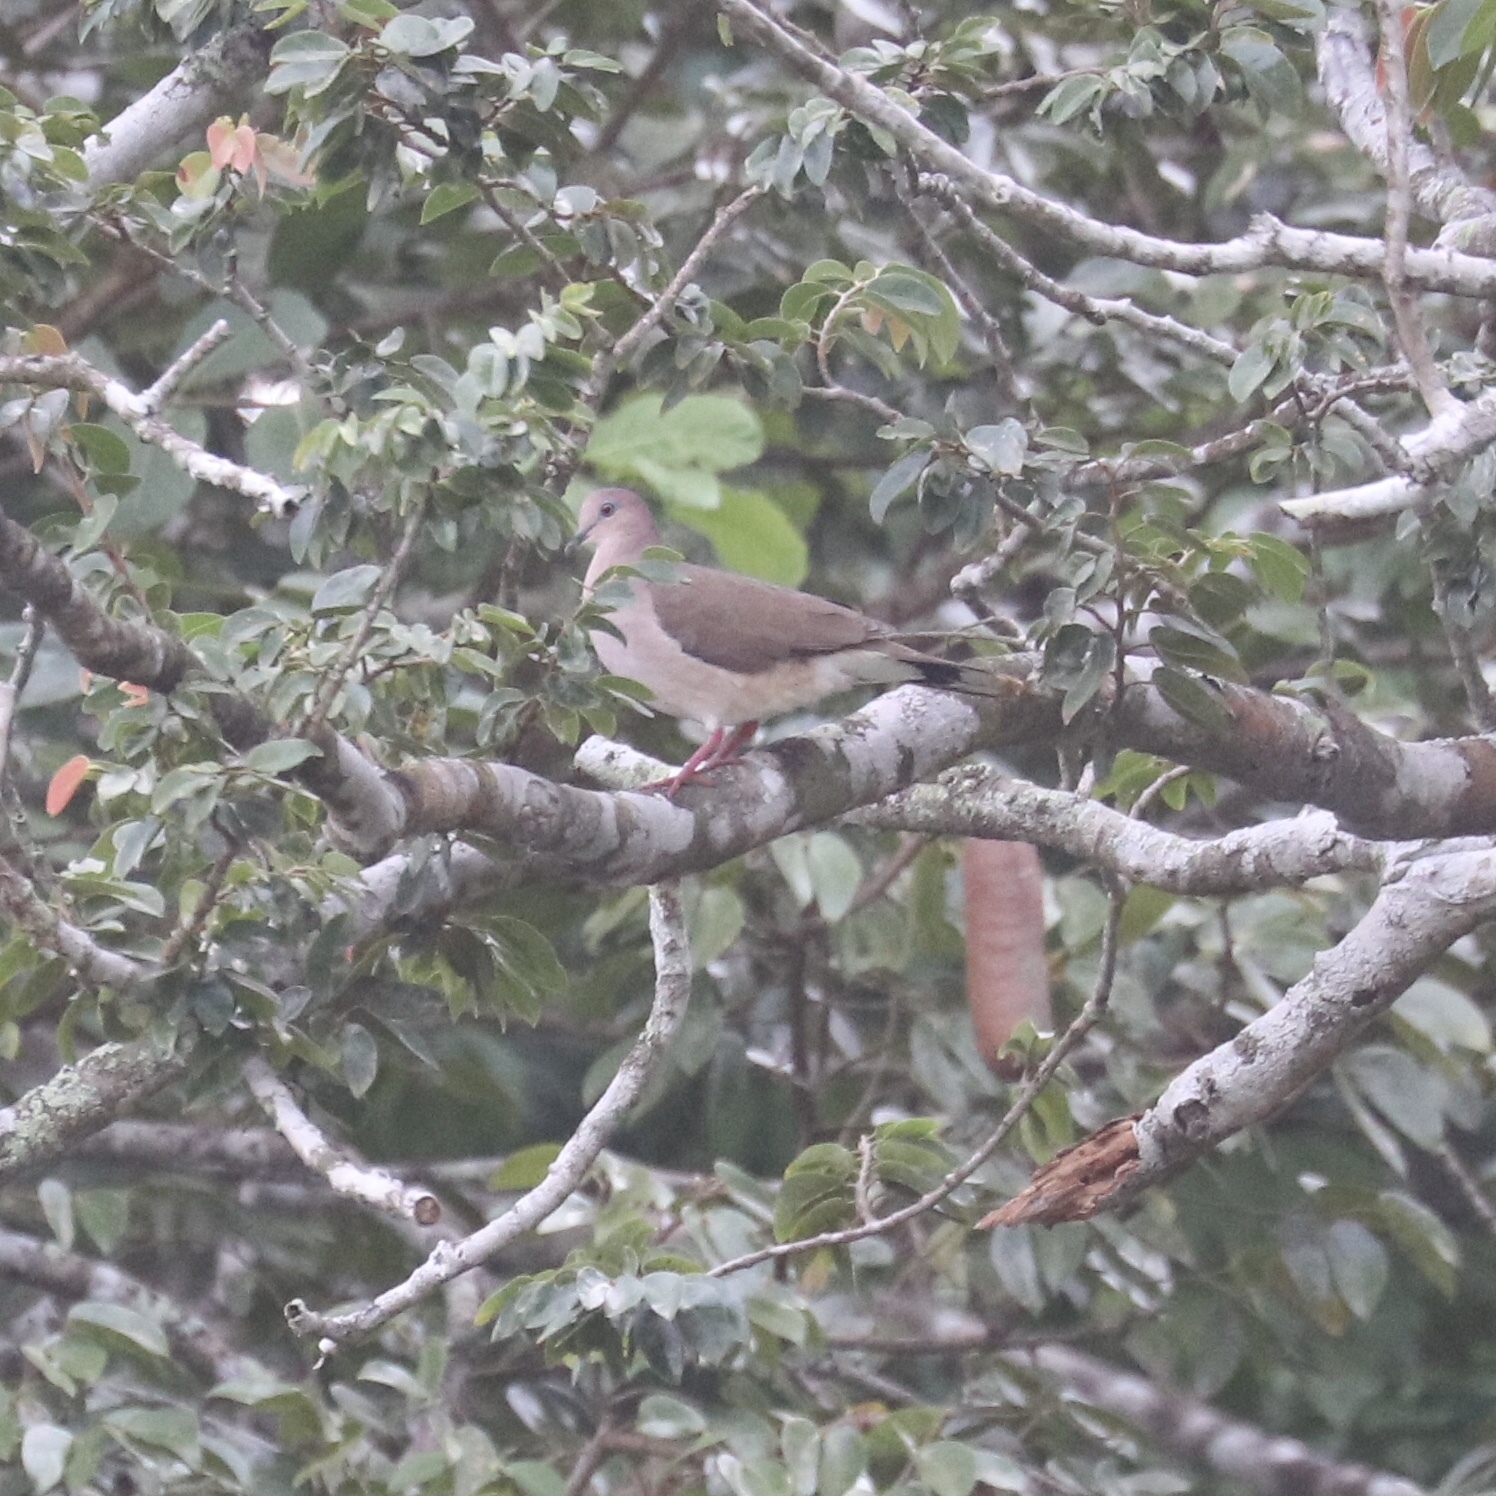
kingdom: Animalia
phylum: Chordata
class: Aves
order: Columbiformes
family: Columbidae
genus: Leptotila
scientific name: Leptotila verreauxi
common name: White-tipped dove
